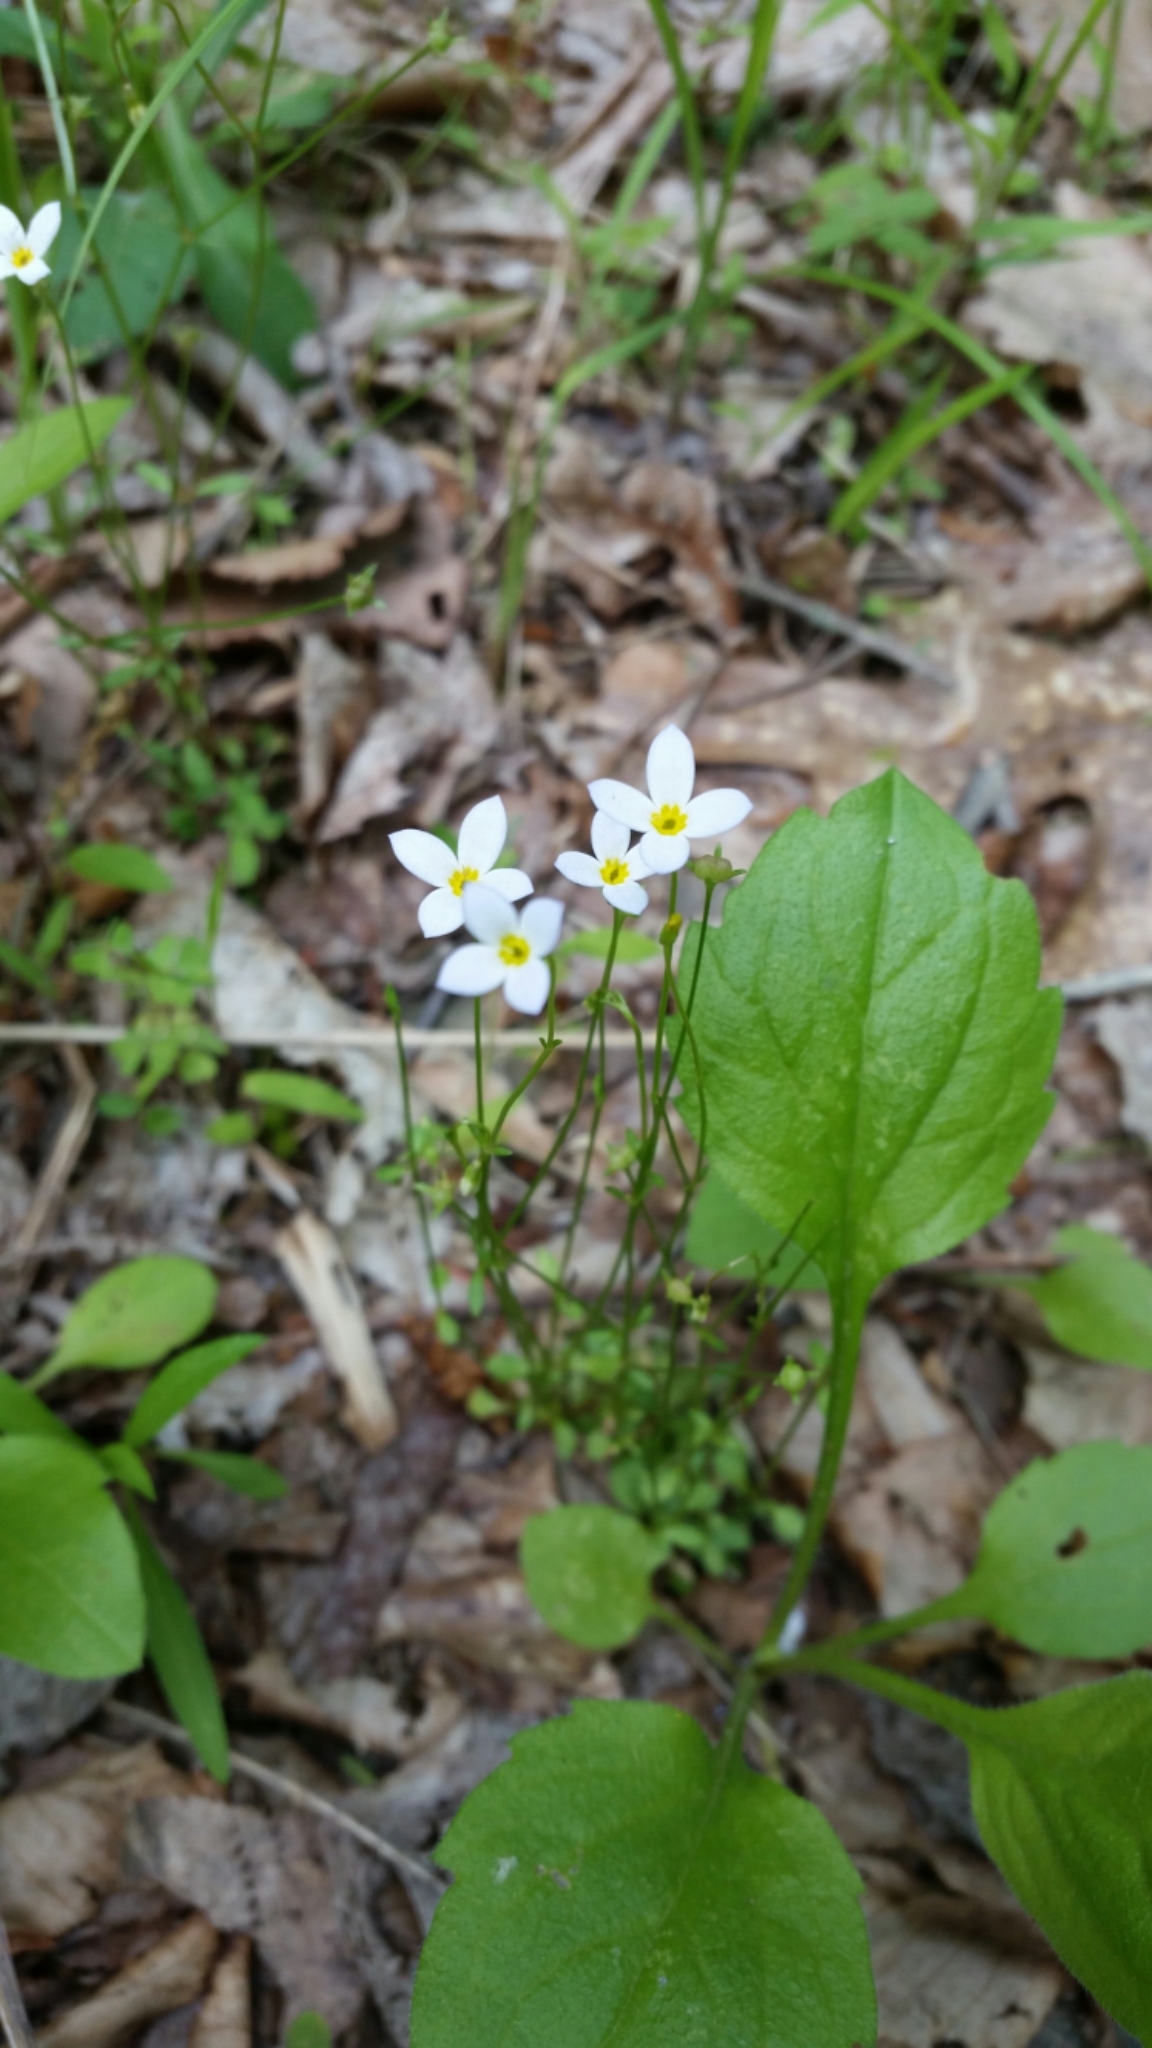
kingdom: Plantae
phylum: Tracheophyta
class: Magnoliopsida
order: Gentianales
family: Rubiaceae
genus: Houstonia
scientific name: Houstonia caerulea
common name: Bluets
